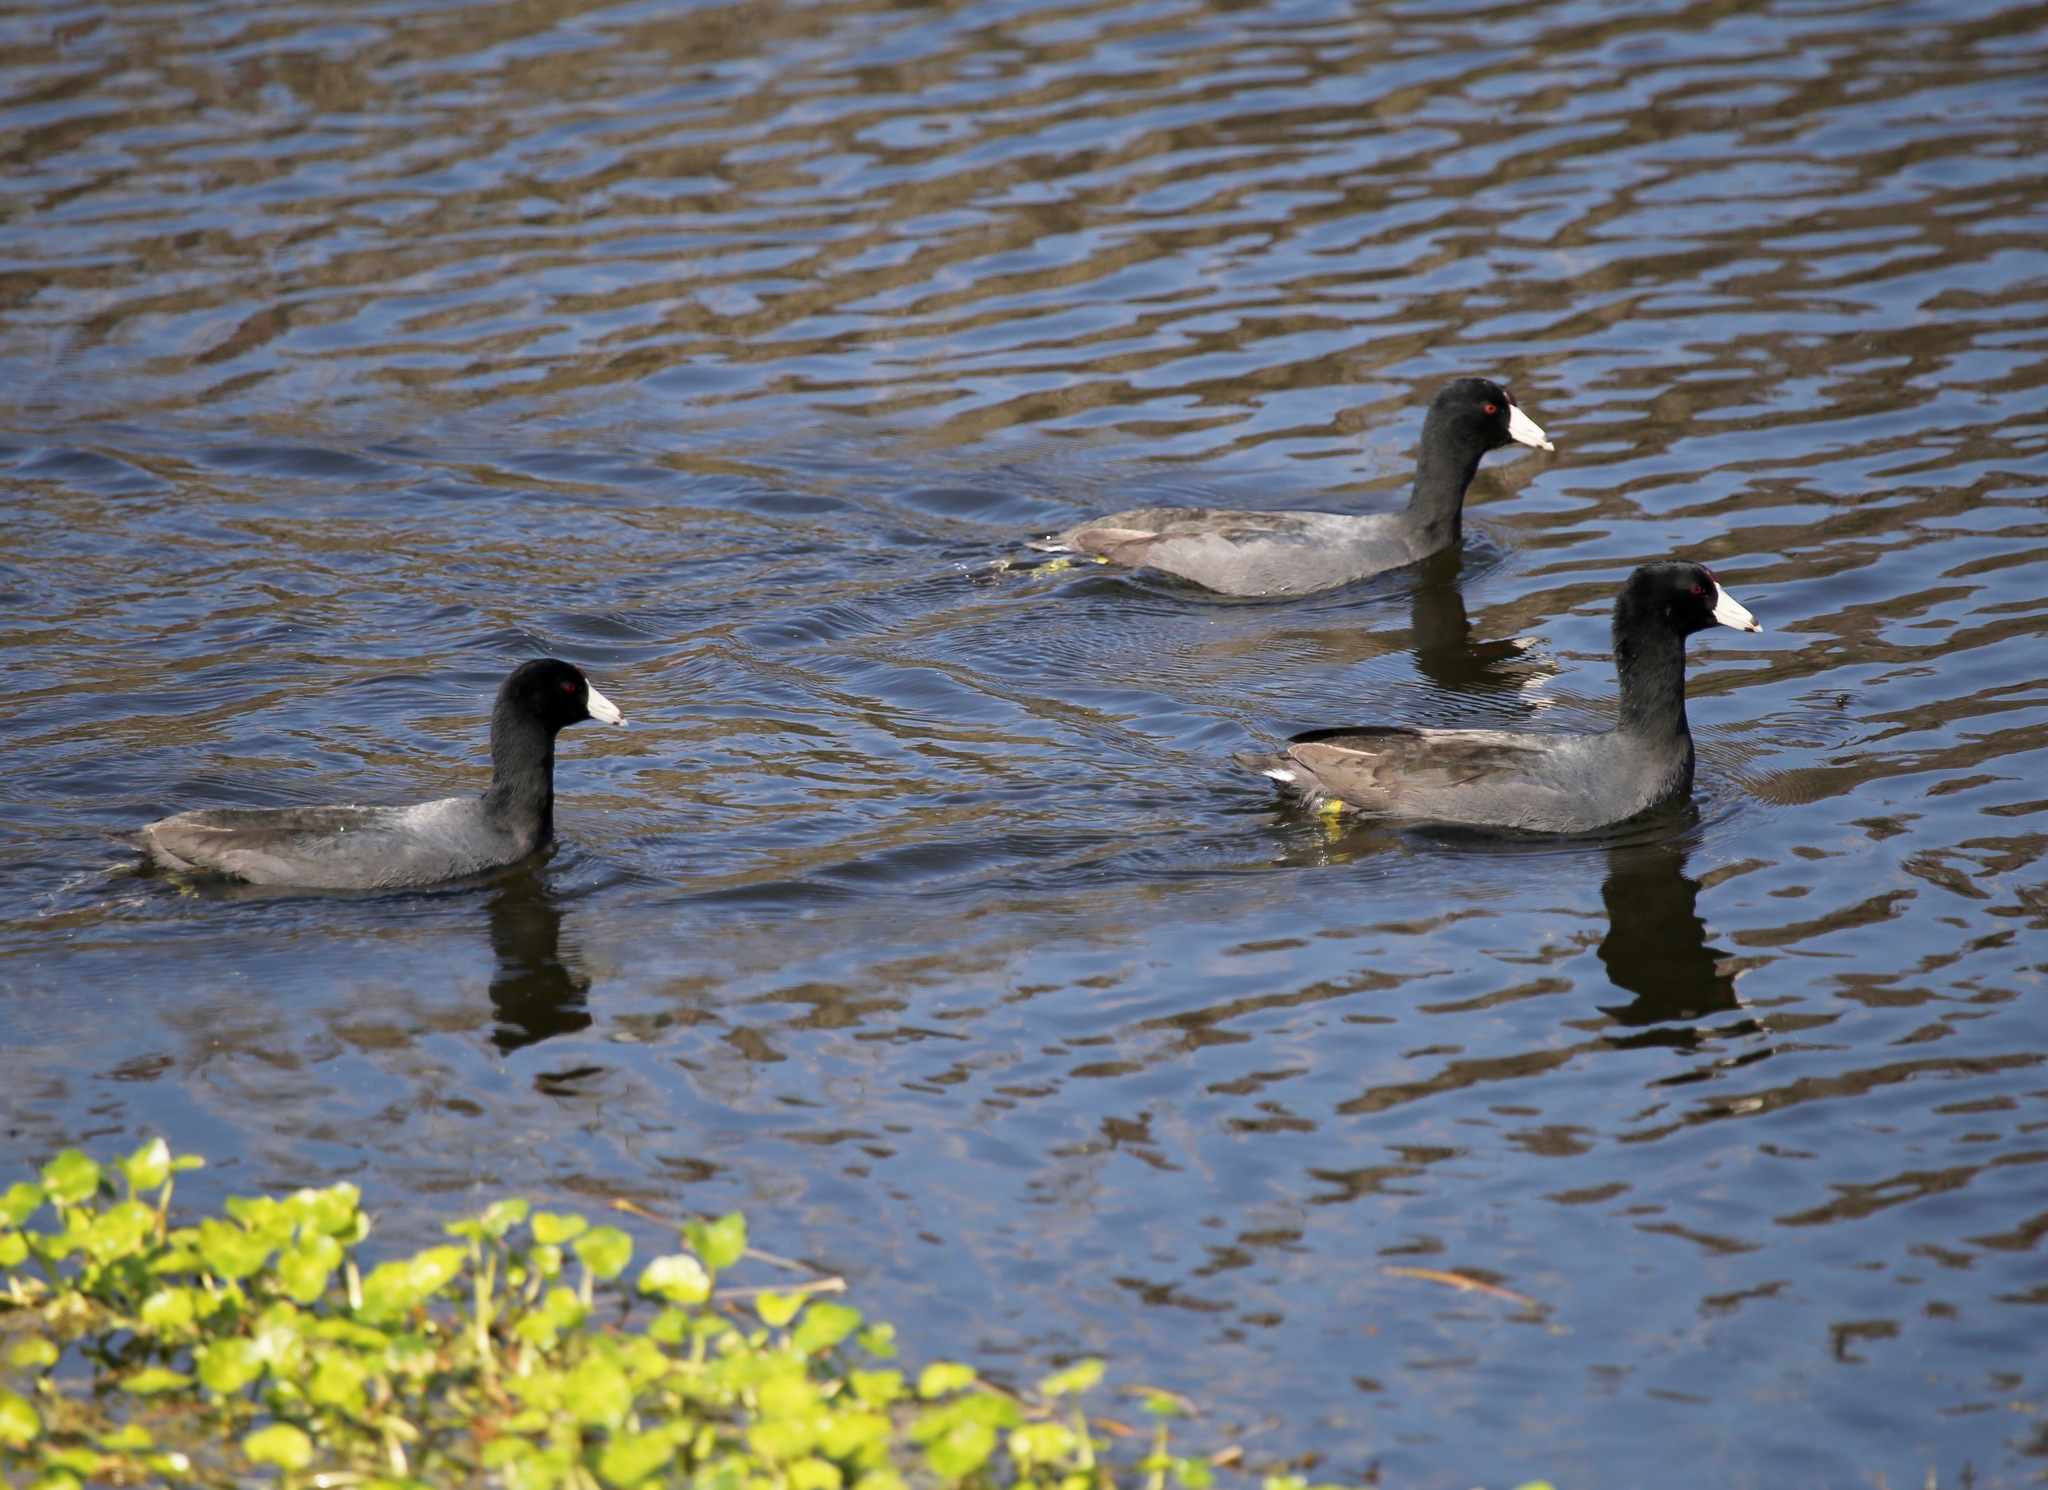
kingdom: Animalia
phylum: Chordata
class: Aves
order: Gruiformes
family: Rallidae
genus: Fulica
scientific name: Fulica americana
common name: American coot
